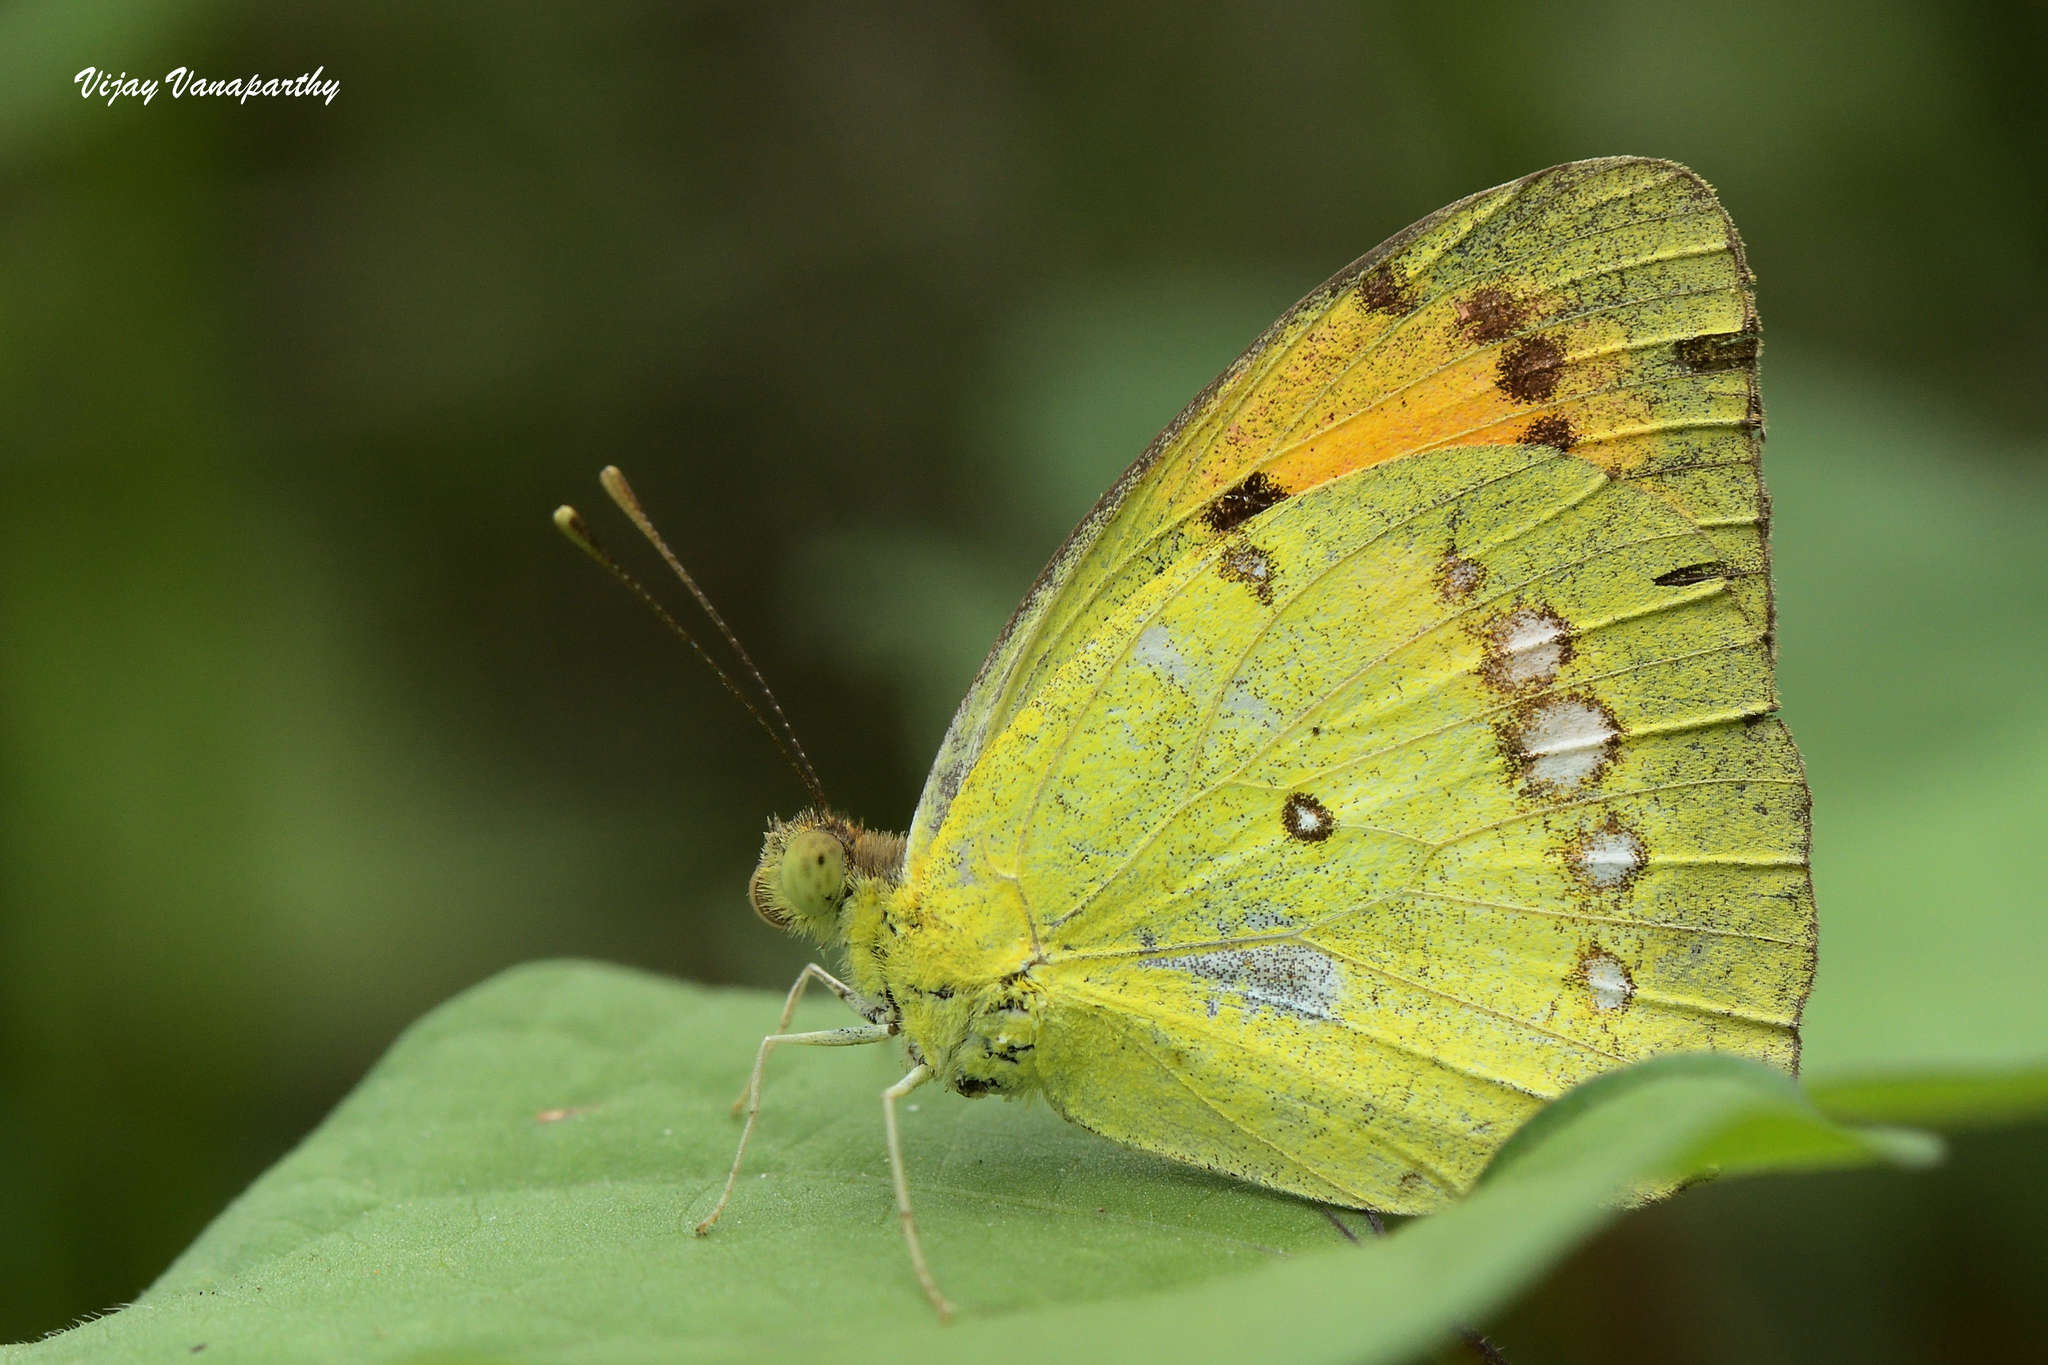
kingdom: Animalia
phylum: Arthropoda
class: Insecta
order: Lepidoptera
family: Pieridae
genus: Ixias
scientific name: Ixias marianne
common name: White orange tip
